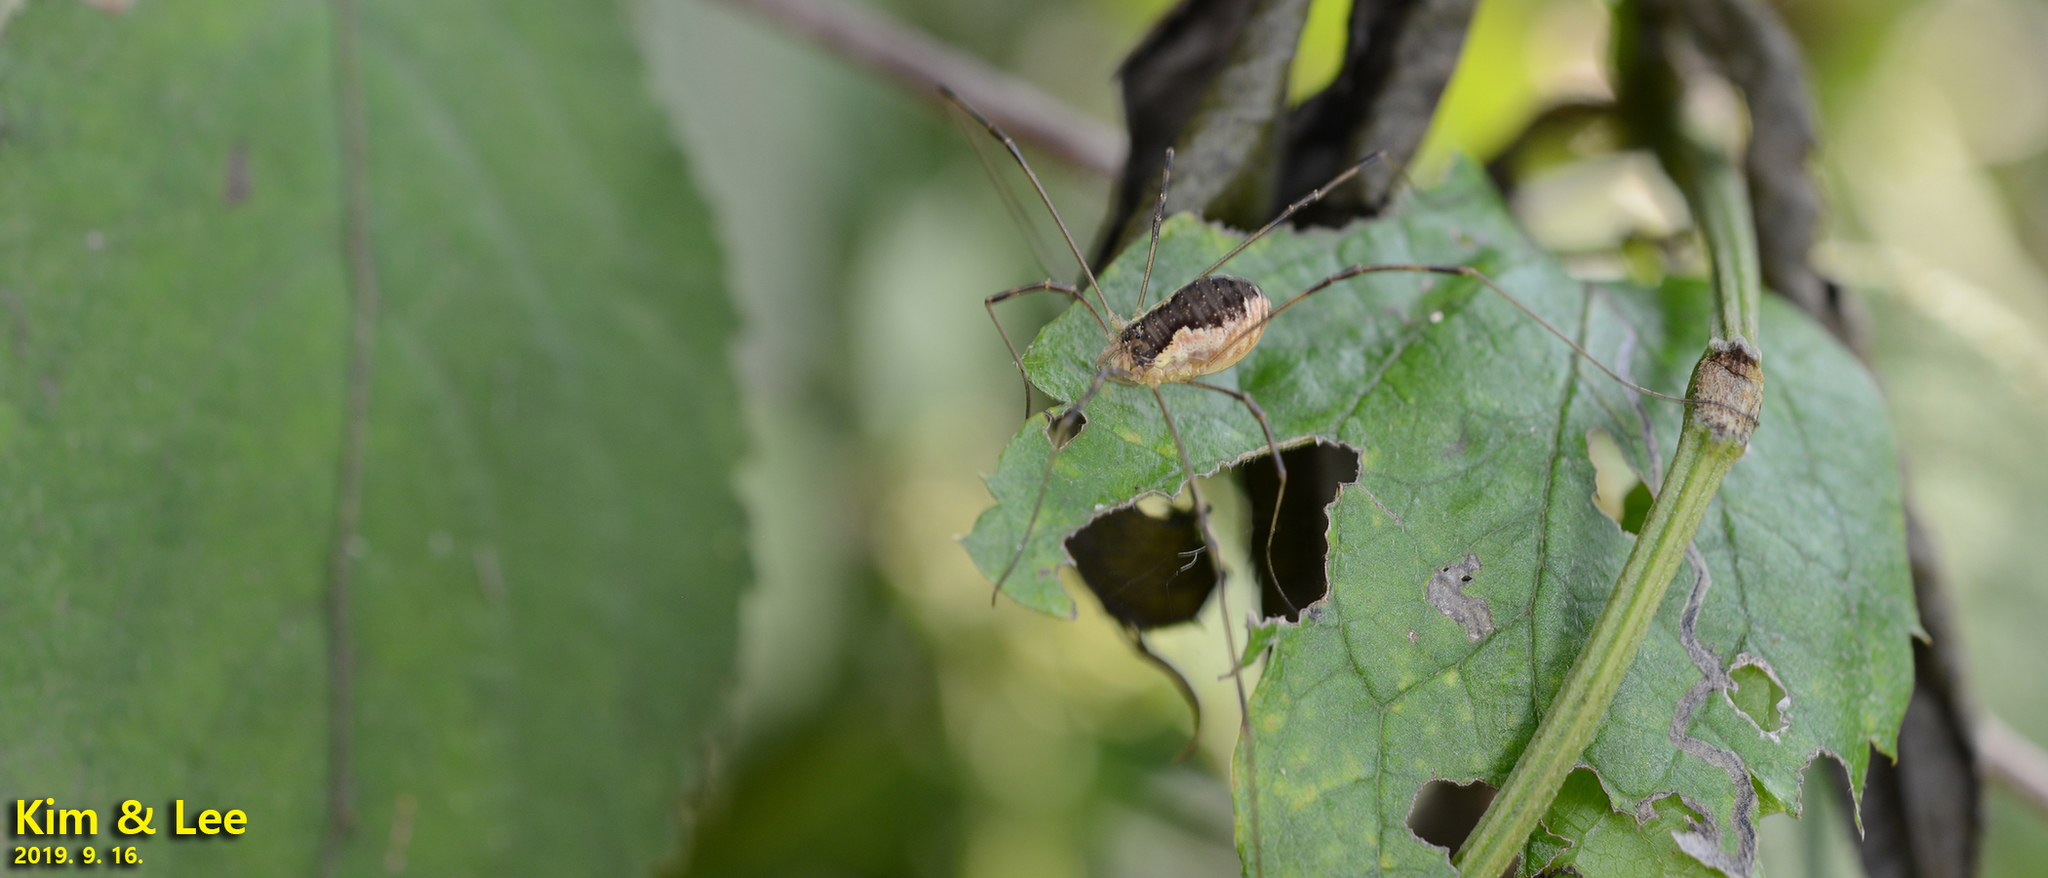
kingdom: Animalia
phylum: Arthropoda
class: Arachnida
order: Opiliones
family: Phalangiidae
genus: Oligolophus
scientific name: Oligolophus tienmushanensis
